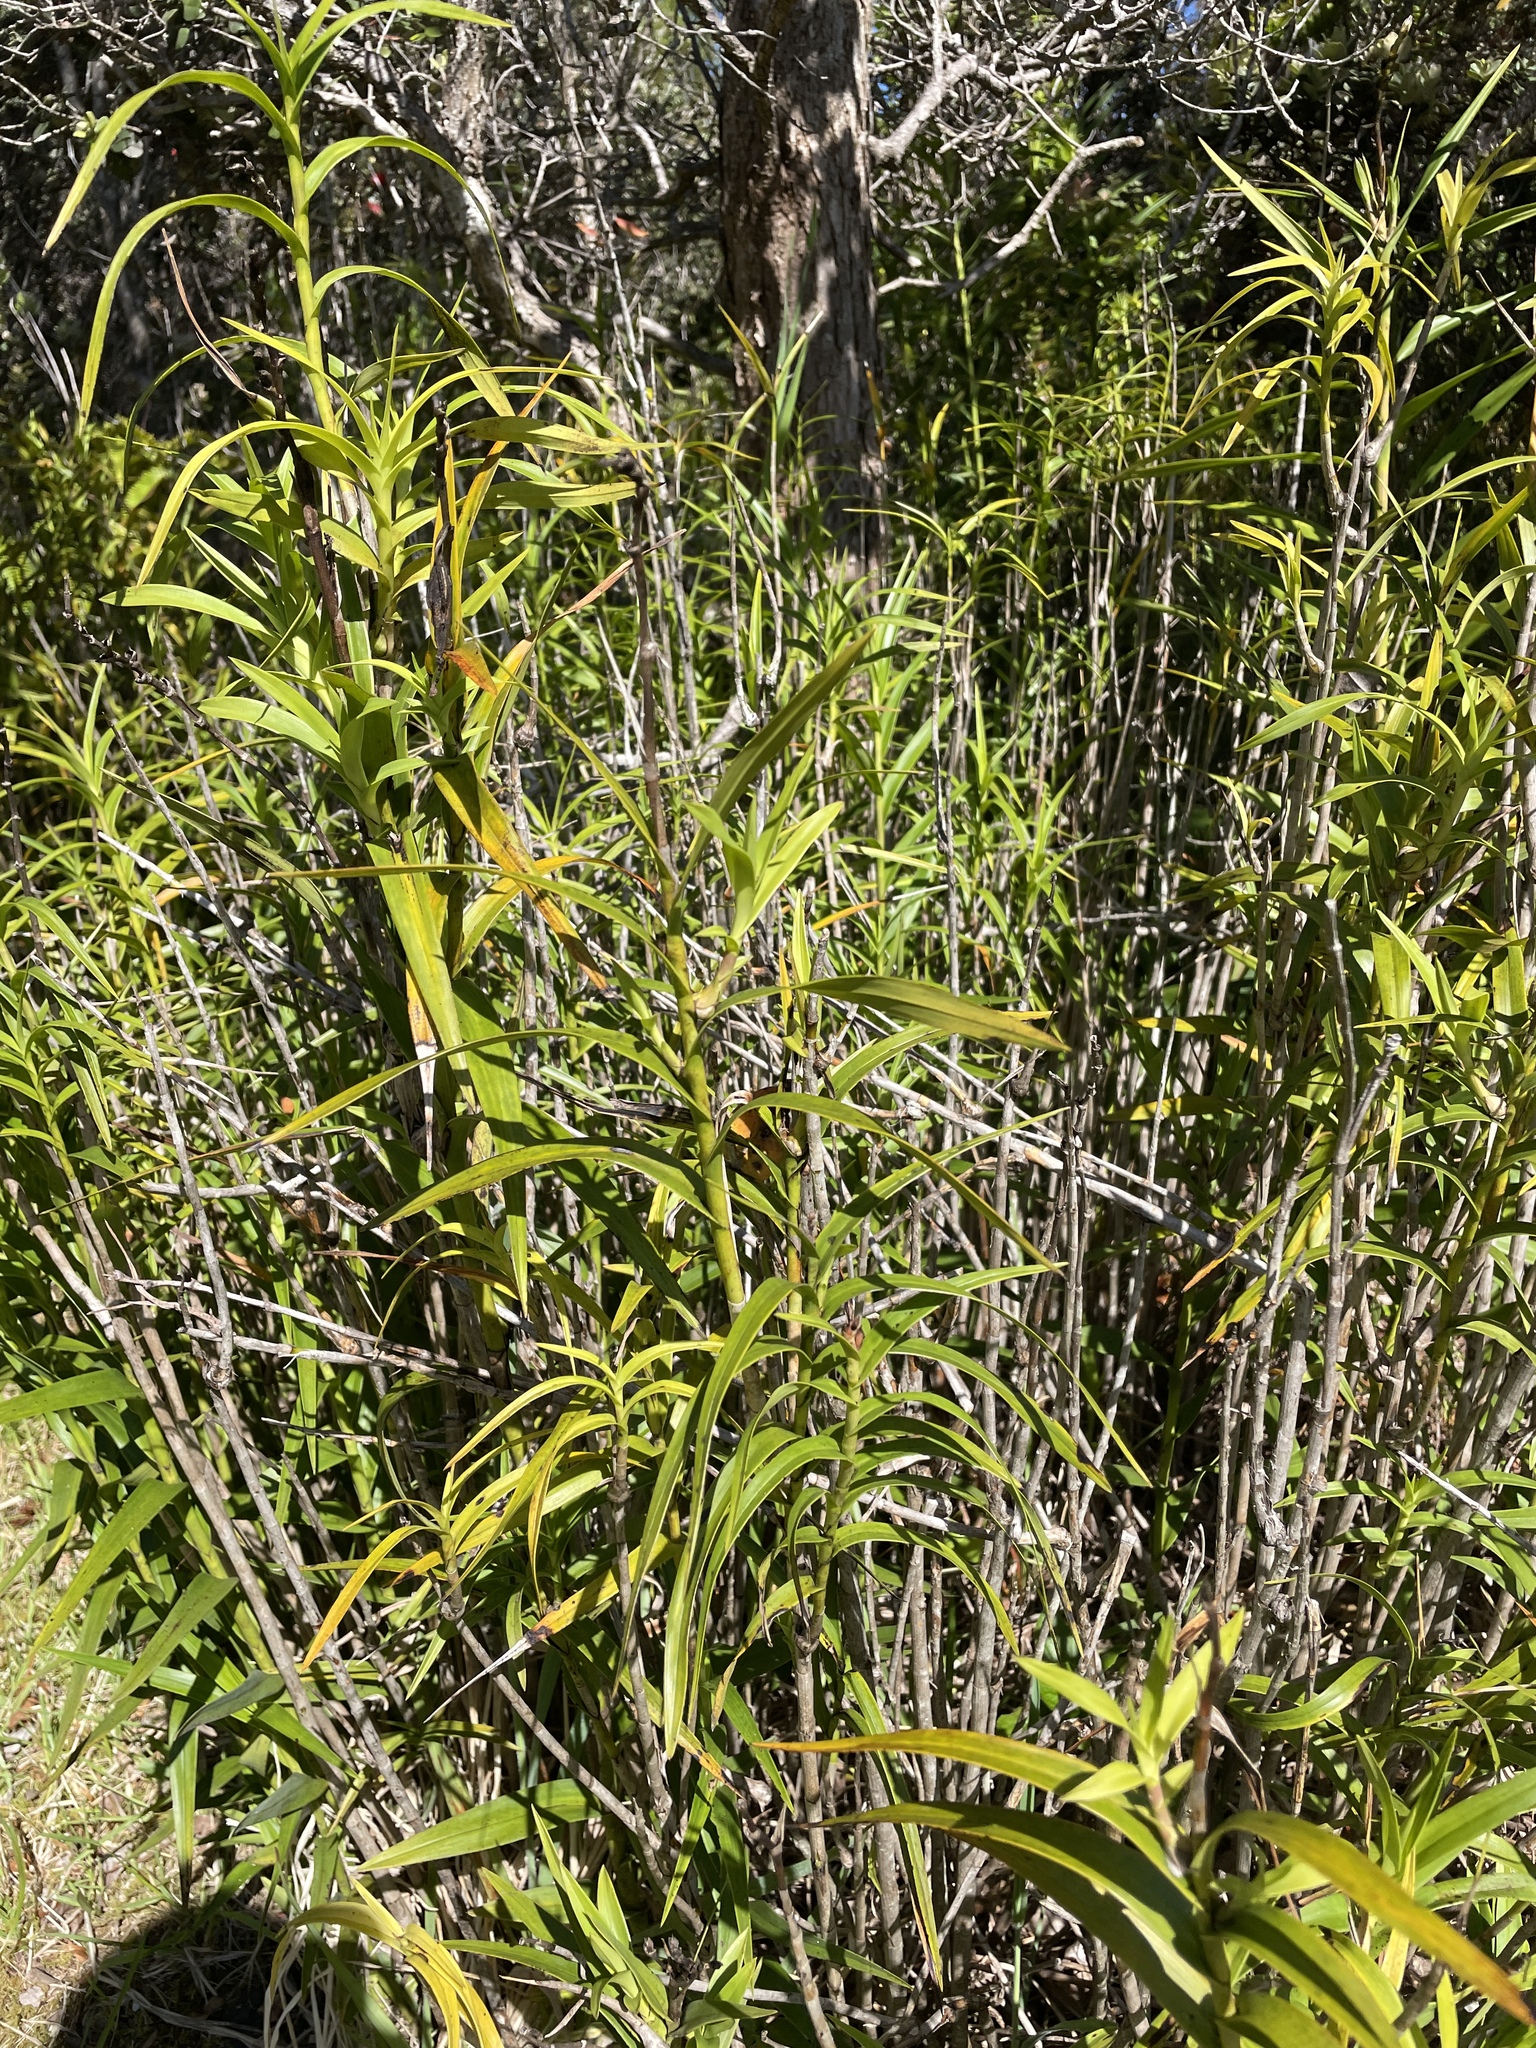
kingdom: Plantae
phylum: Tracheophyta
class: Liliopsida
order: Asparagales
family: Orchidaceae
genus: Arundina
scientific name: Arundina graminifolia
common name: Bamboo orchid
